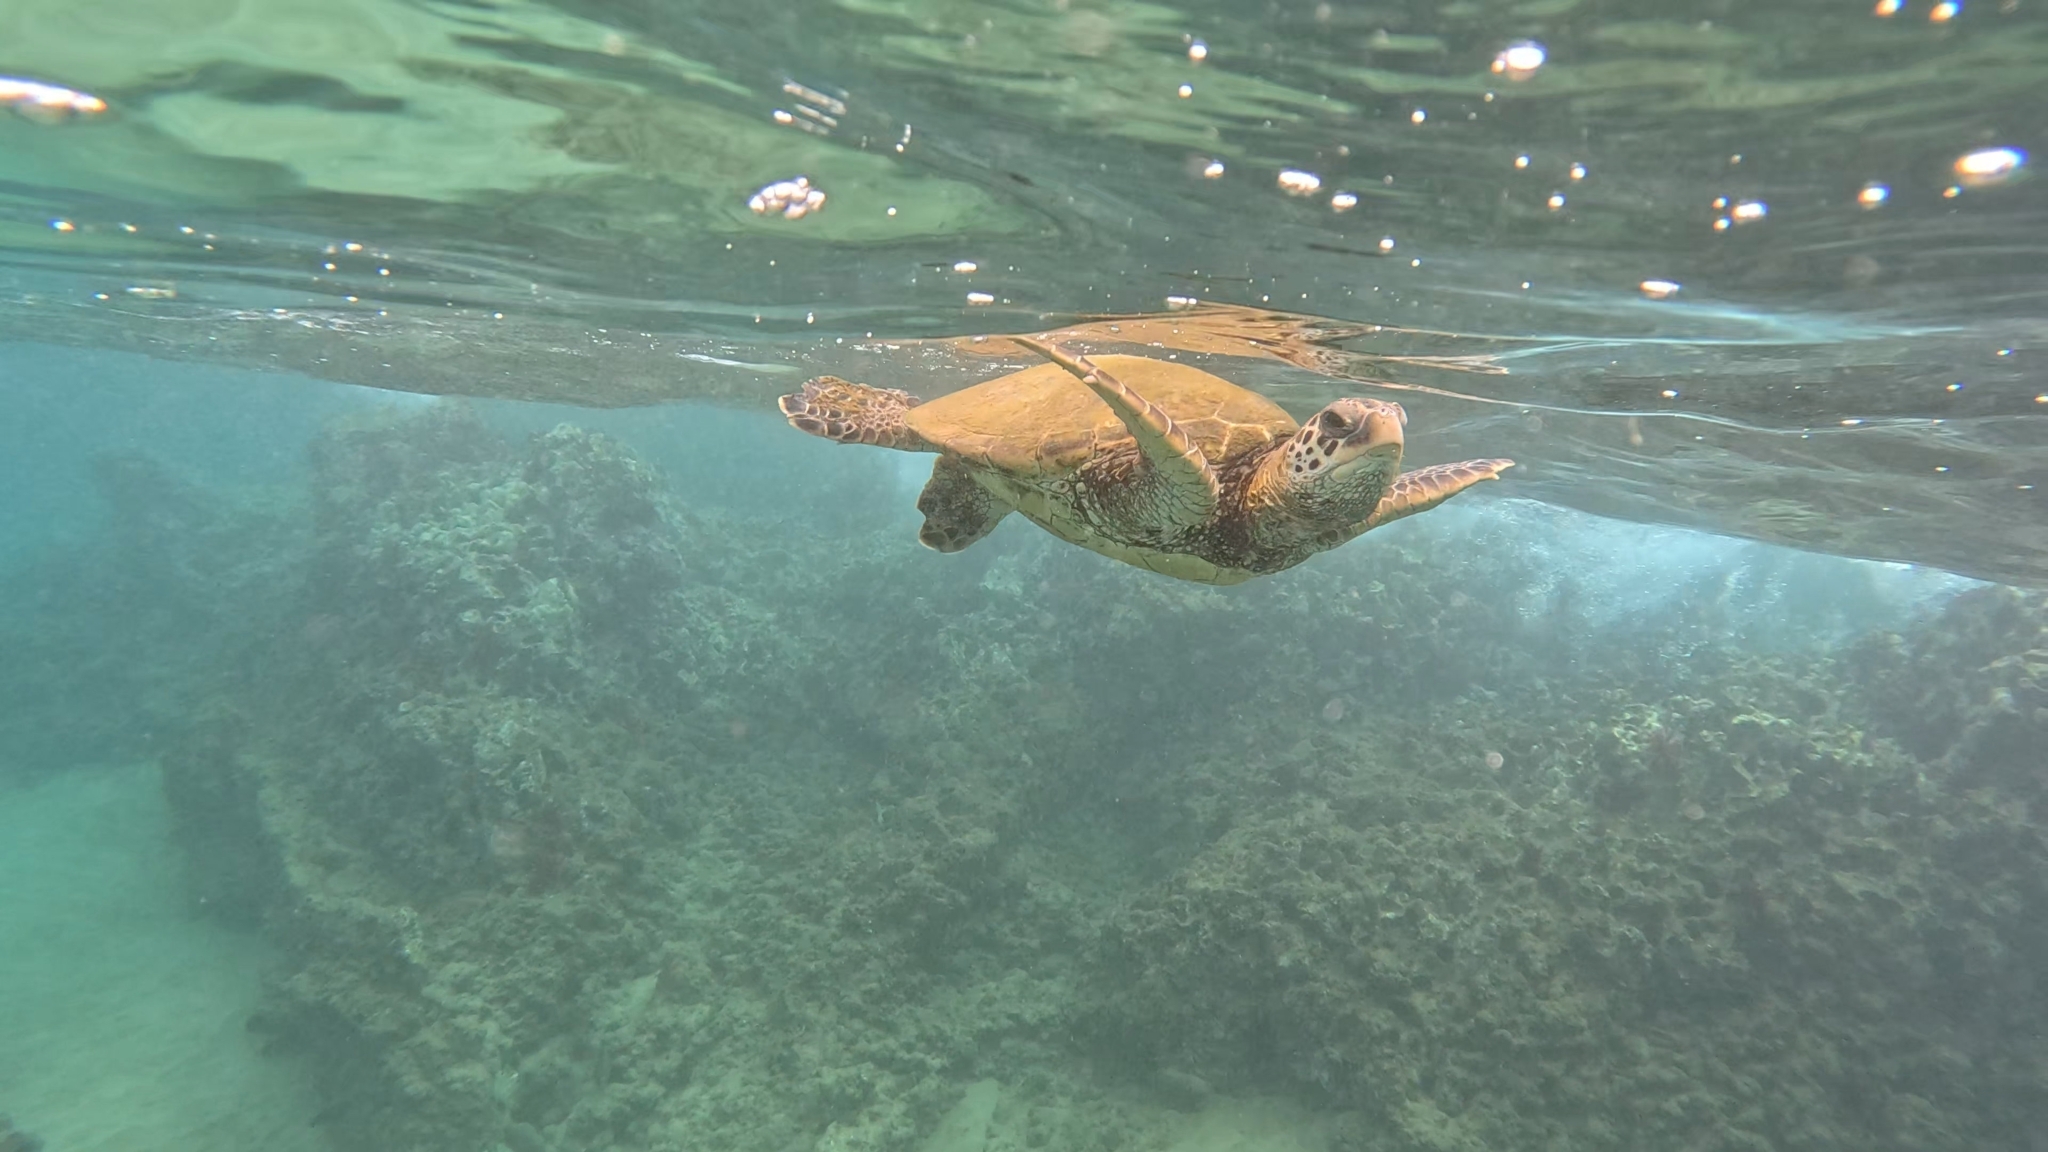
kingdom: Animalia
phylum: Chordata
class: Testudines
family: Cheloniidae
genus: Chelonia
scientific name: Chelonia mydas
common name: Green turtle
